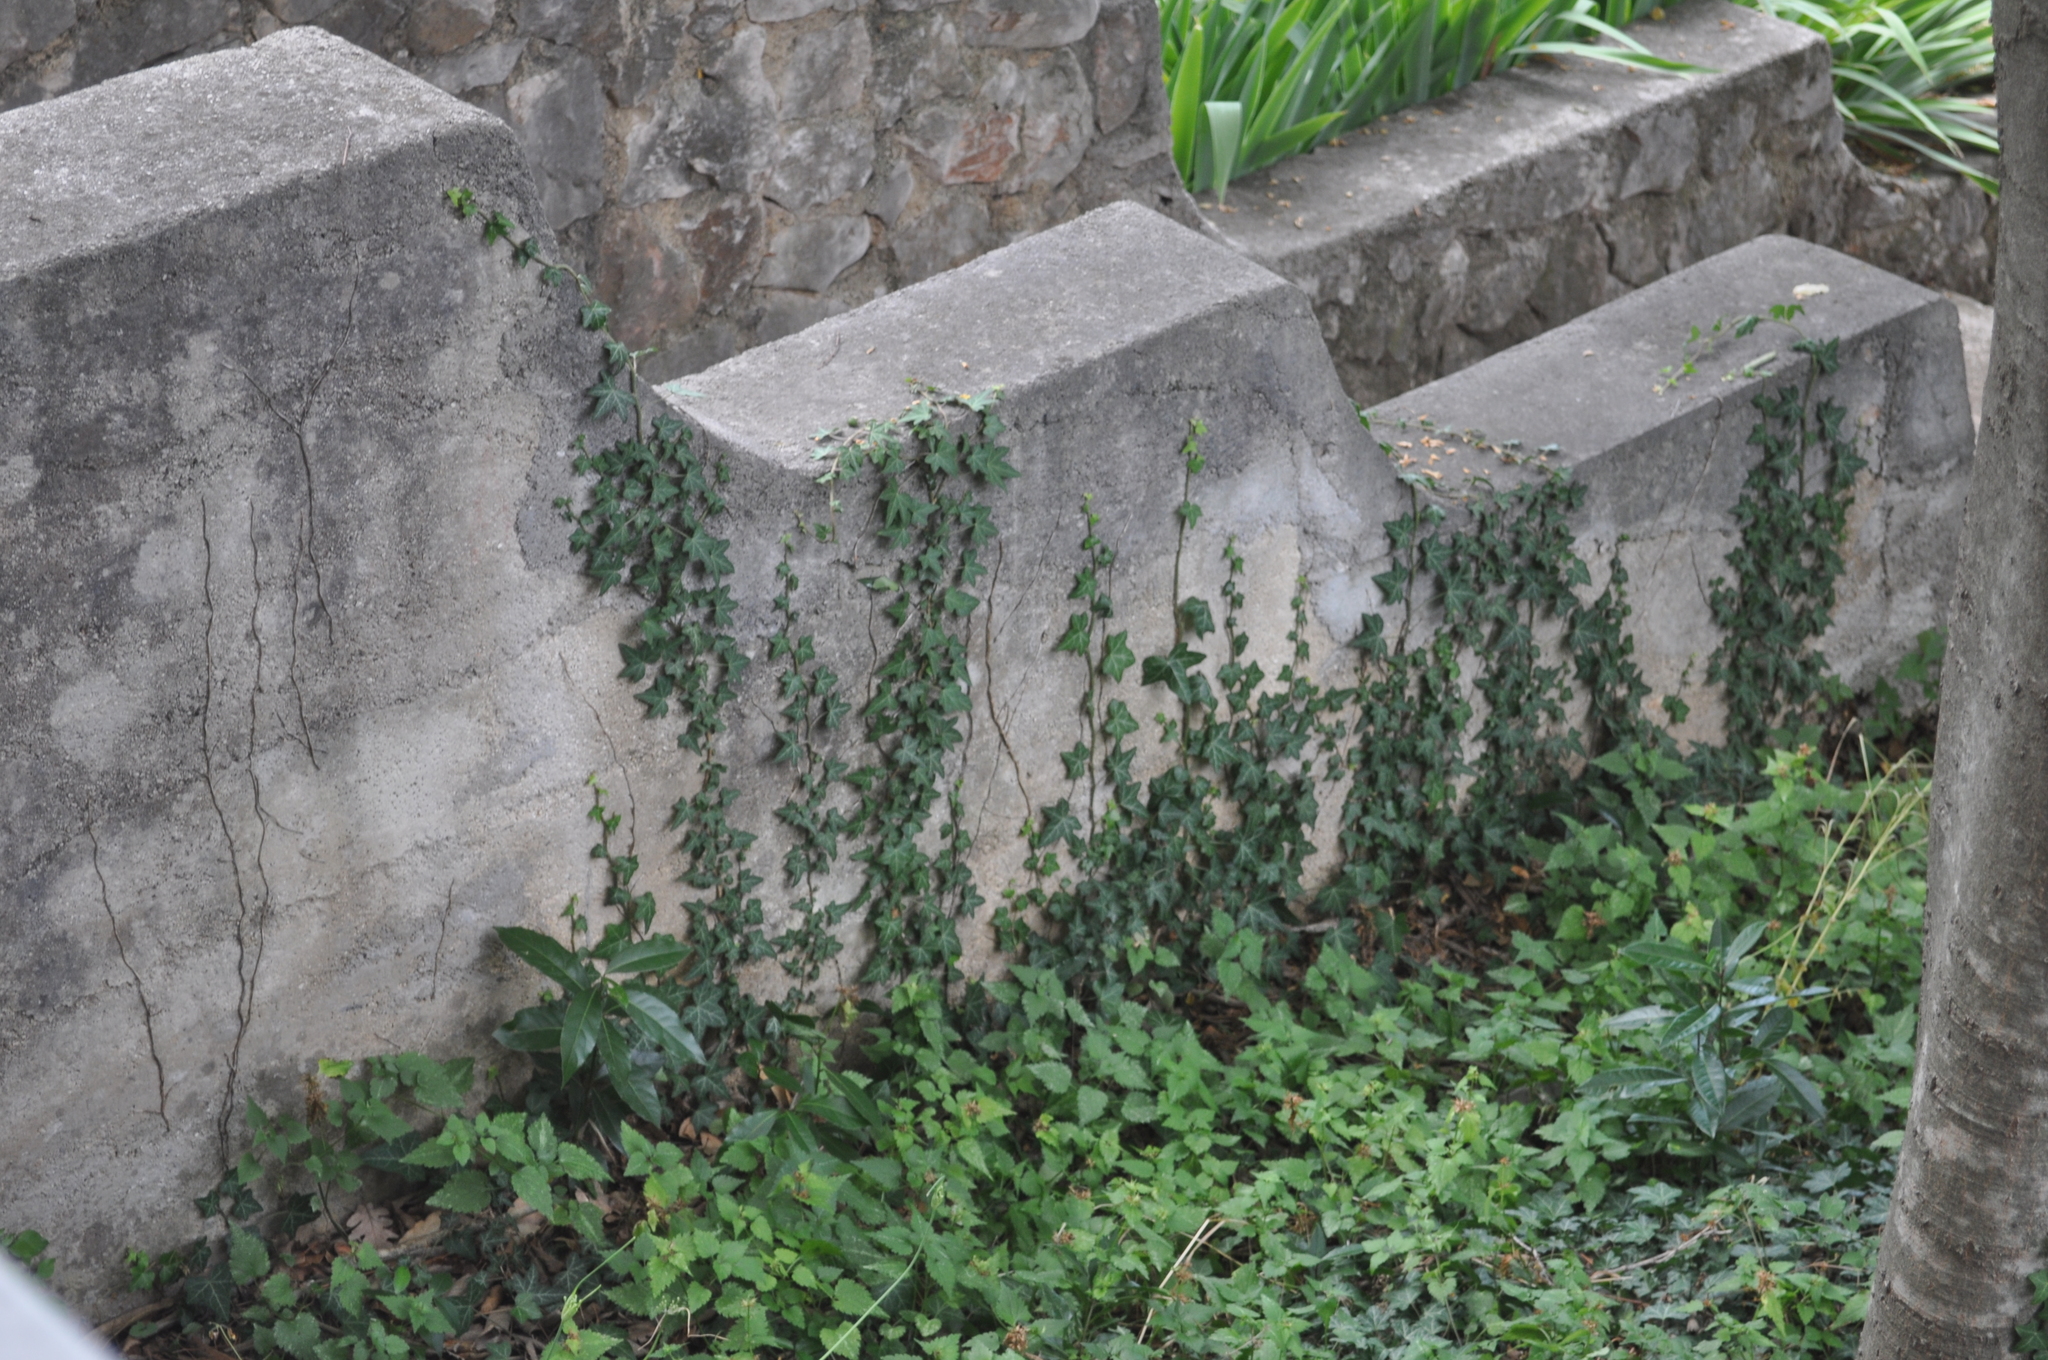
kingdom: Plantae
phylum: Tracheophyta
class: Magnoliopsida
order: Apiales
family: Araliaceae
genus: Hedera
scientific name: Hedera helix
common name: Ivy
